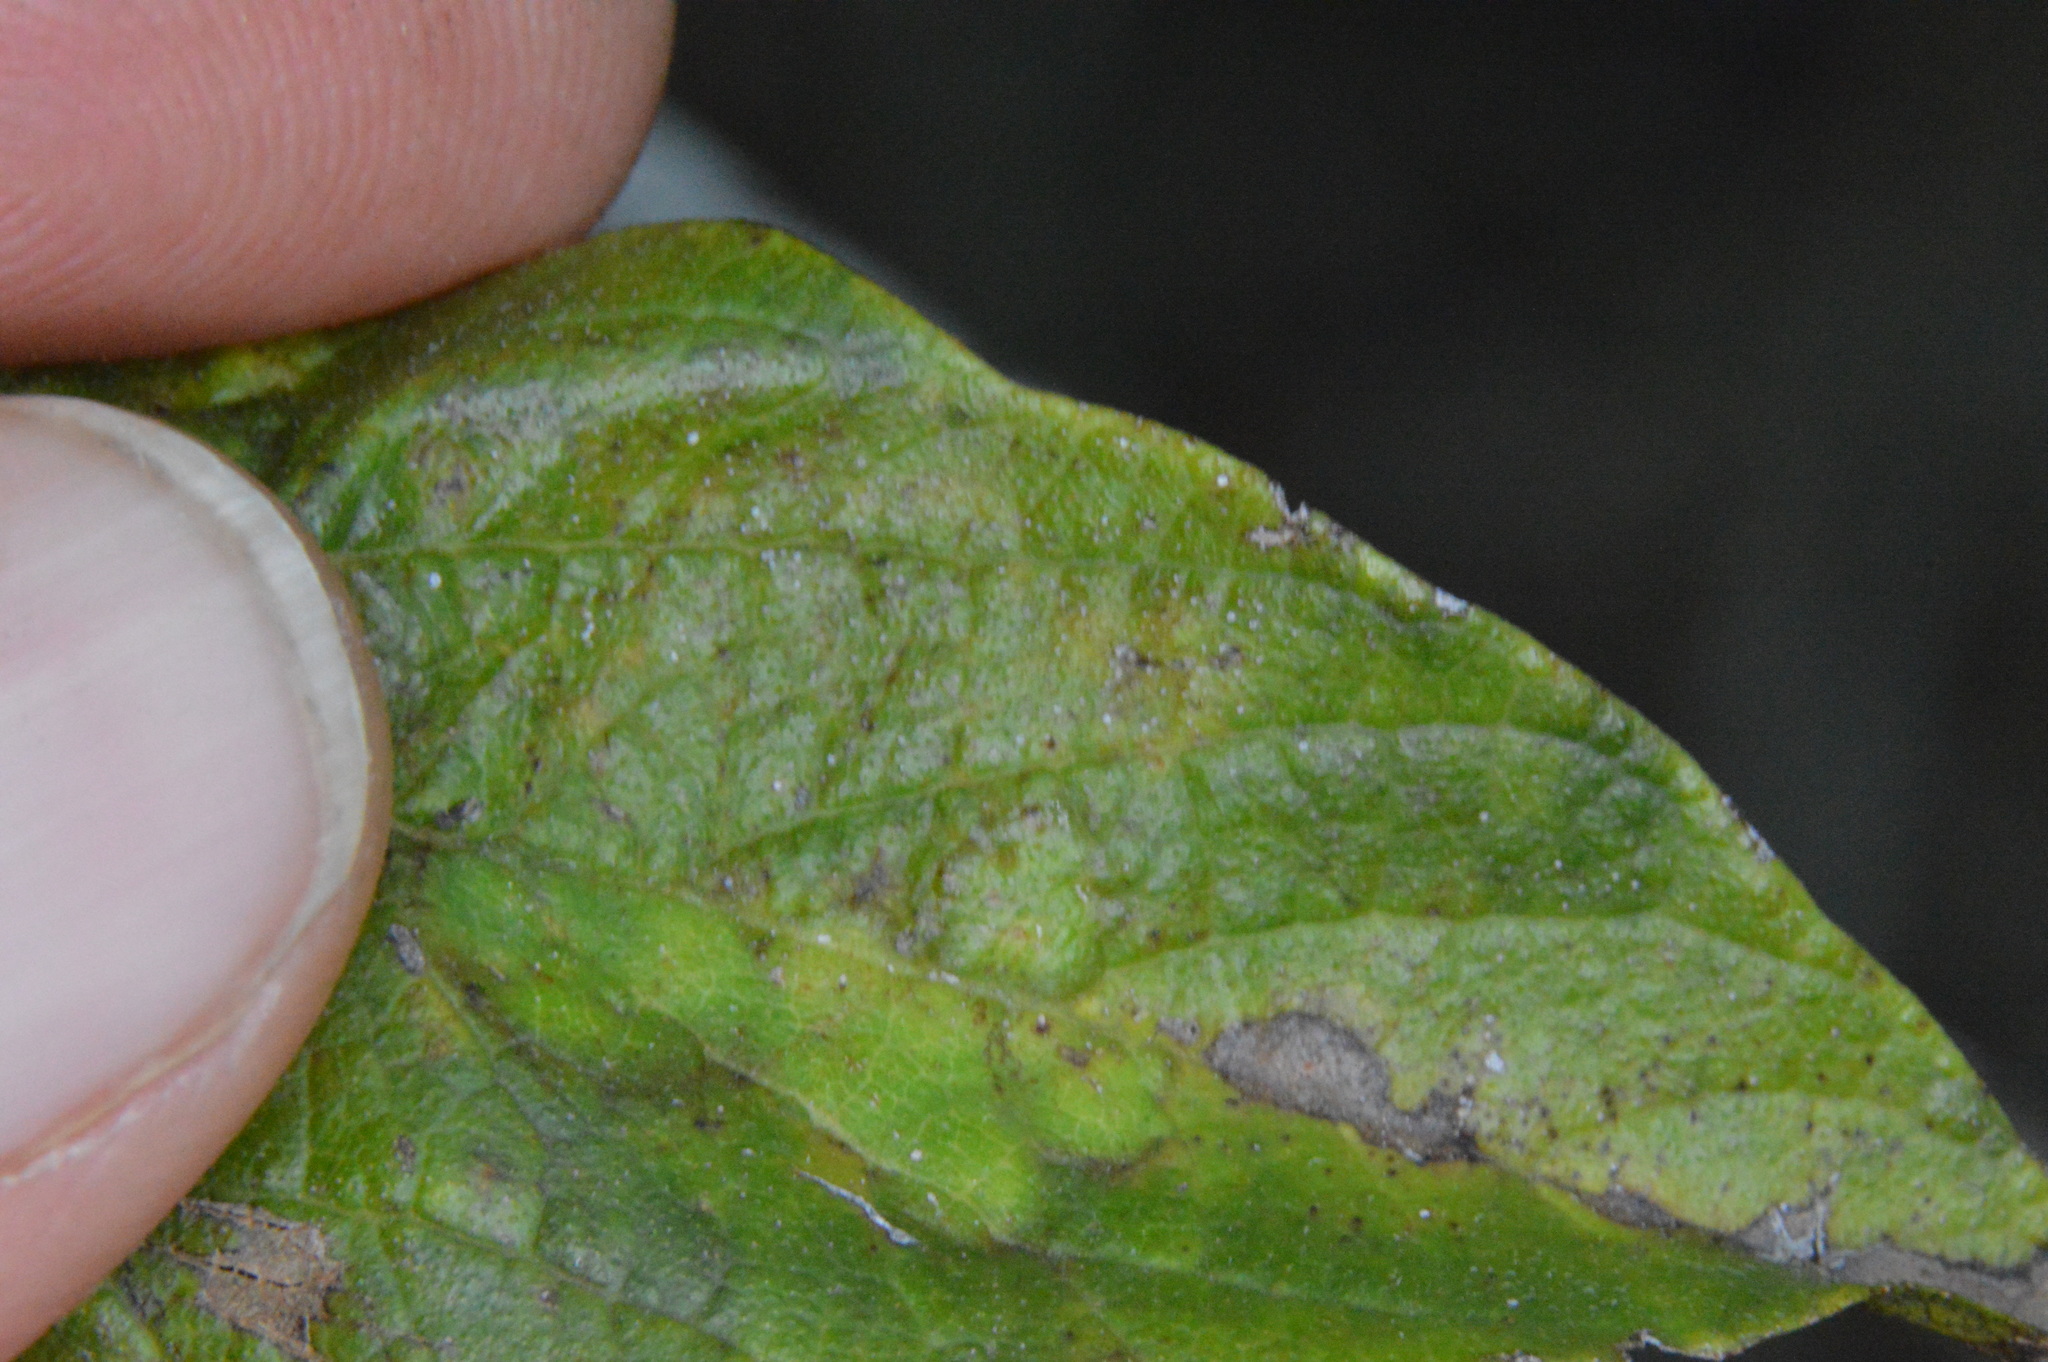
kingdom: Animalia
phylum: Arthropoda
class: Insecta
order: Hemiptera
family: Aphalaridae
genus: Pachypsylla
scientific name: Pachypsylla celtidisvesicula
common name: Hackberry blister gall psyllid
